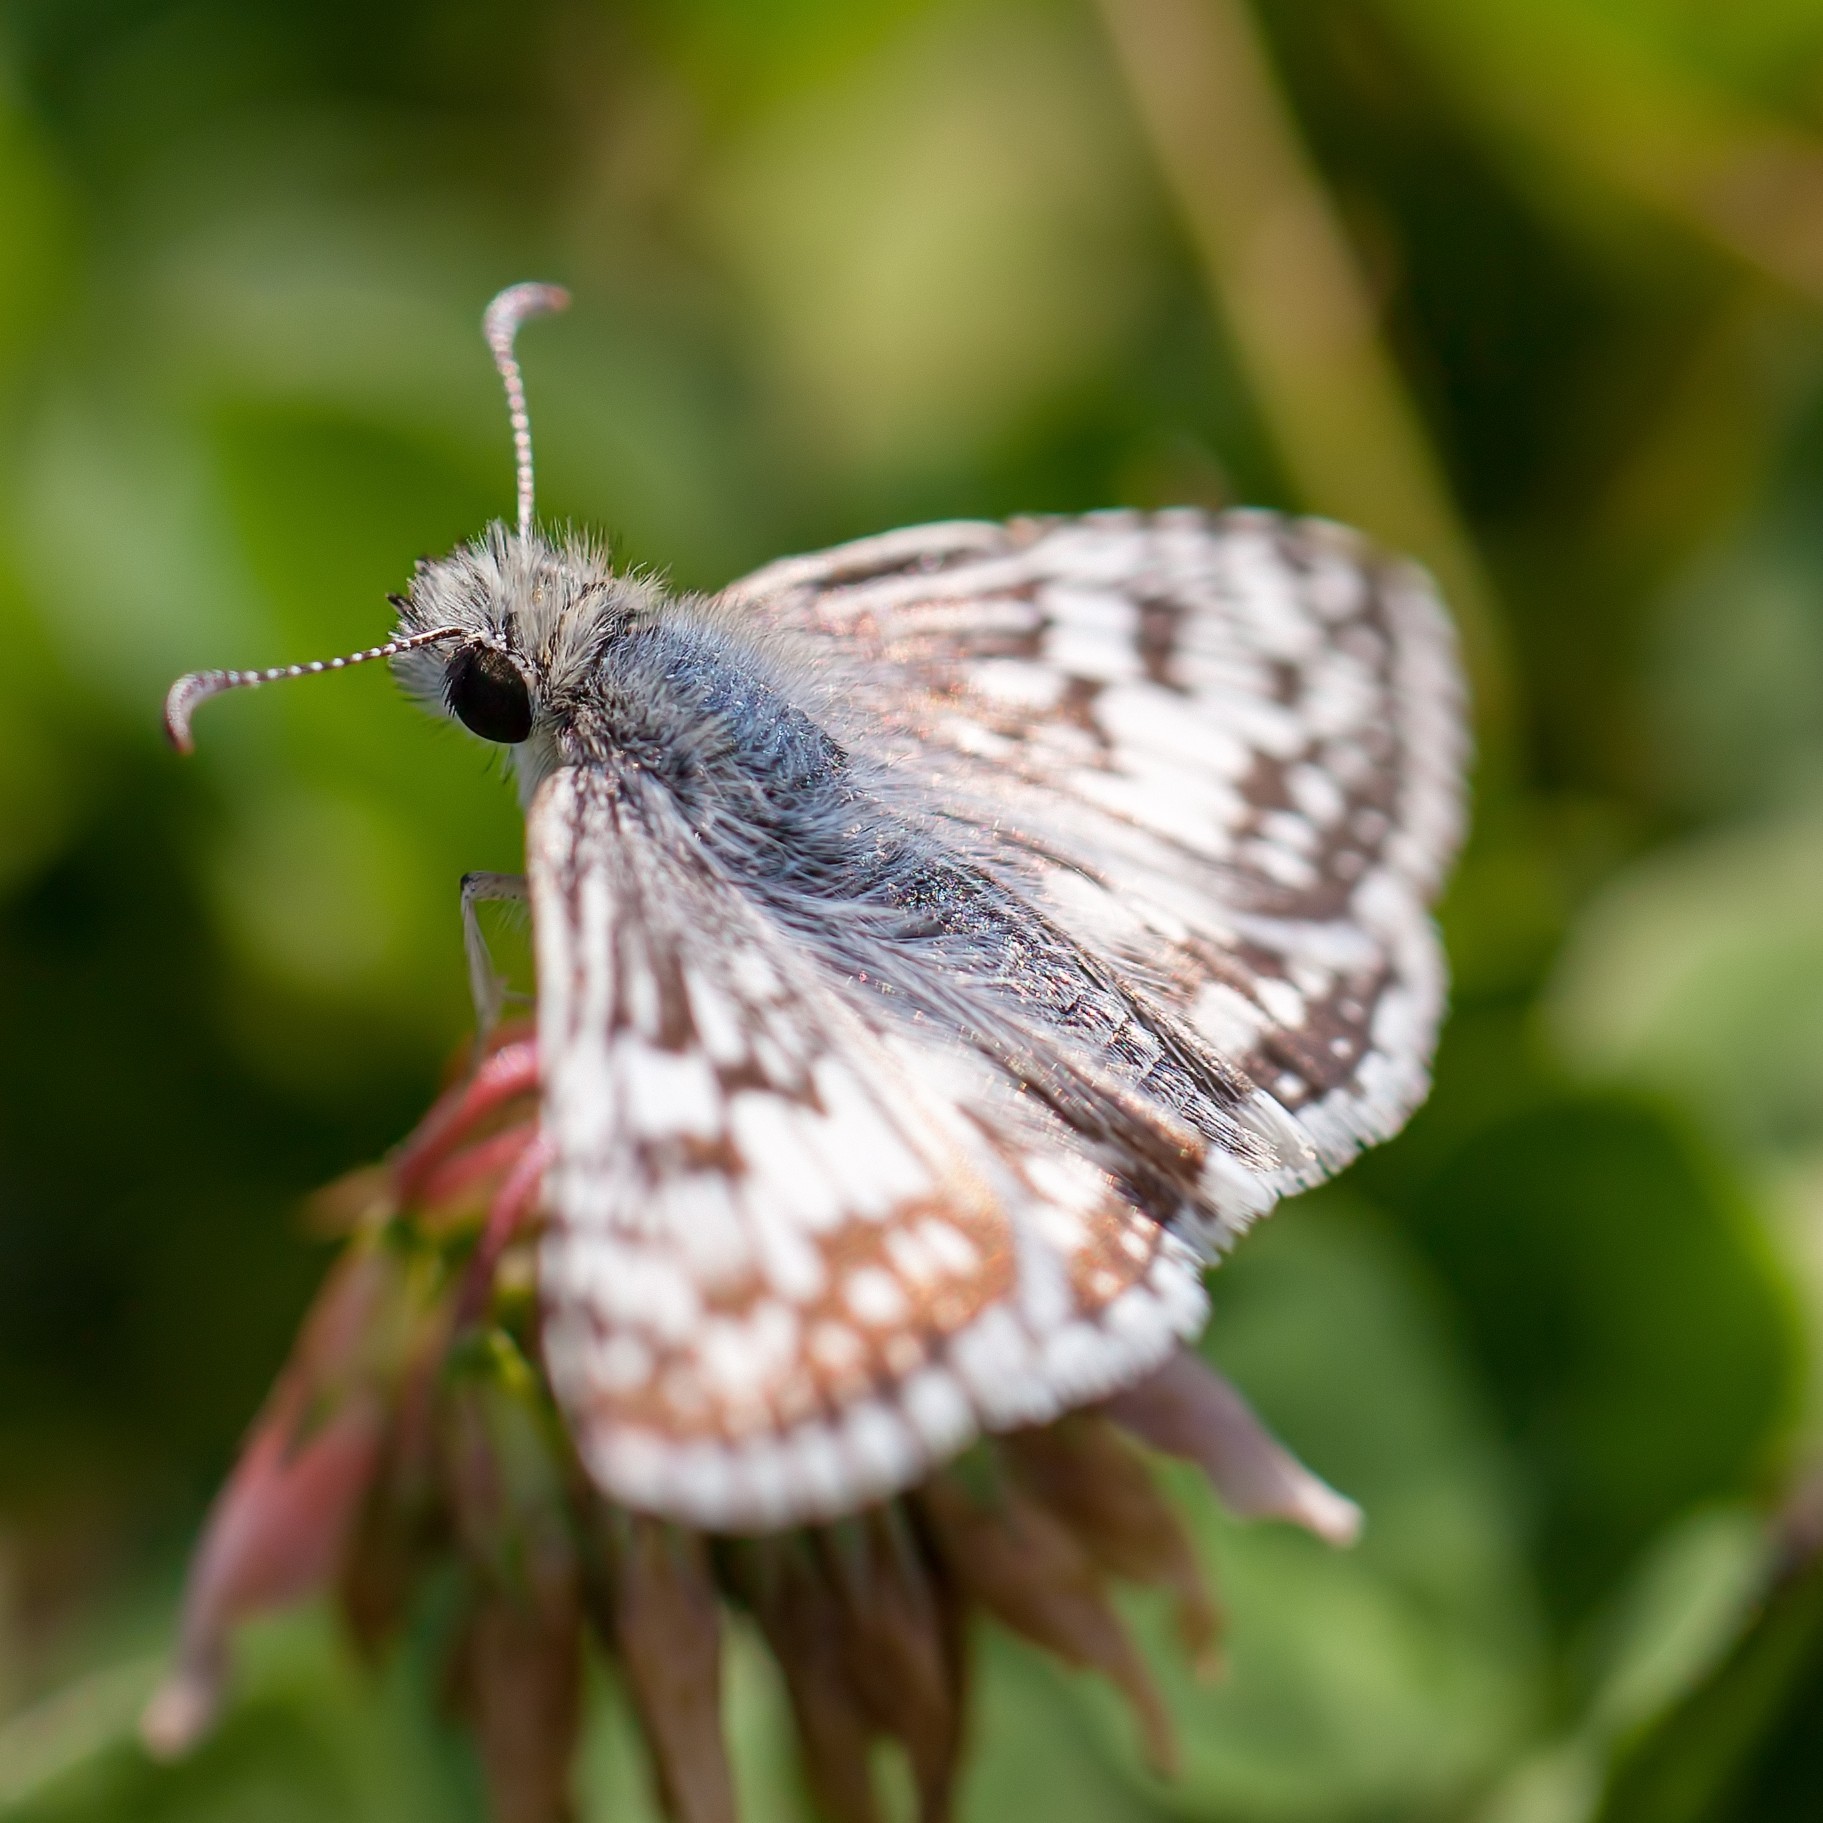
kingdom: Animalia
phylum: Arthropoda
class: Insecta
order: Lepidoptera
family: Hesperiidae
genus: Burnsius
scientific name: Burnsius albezens
